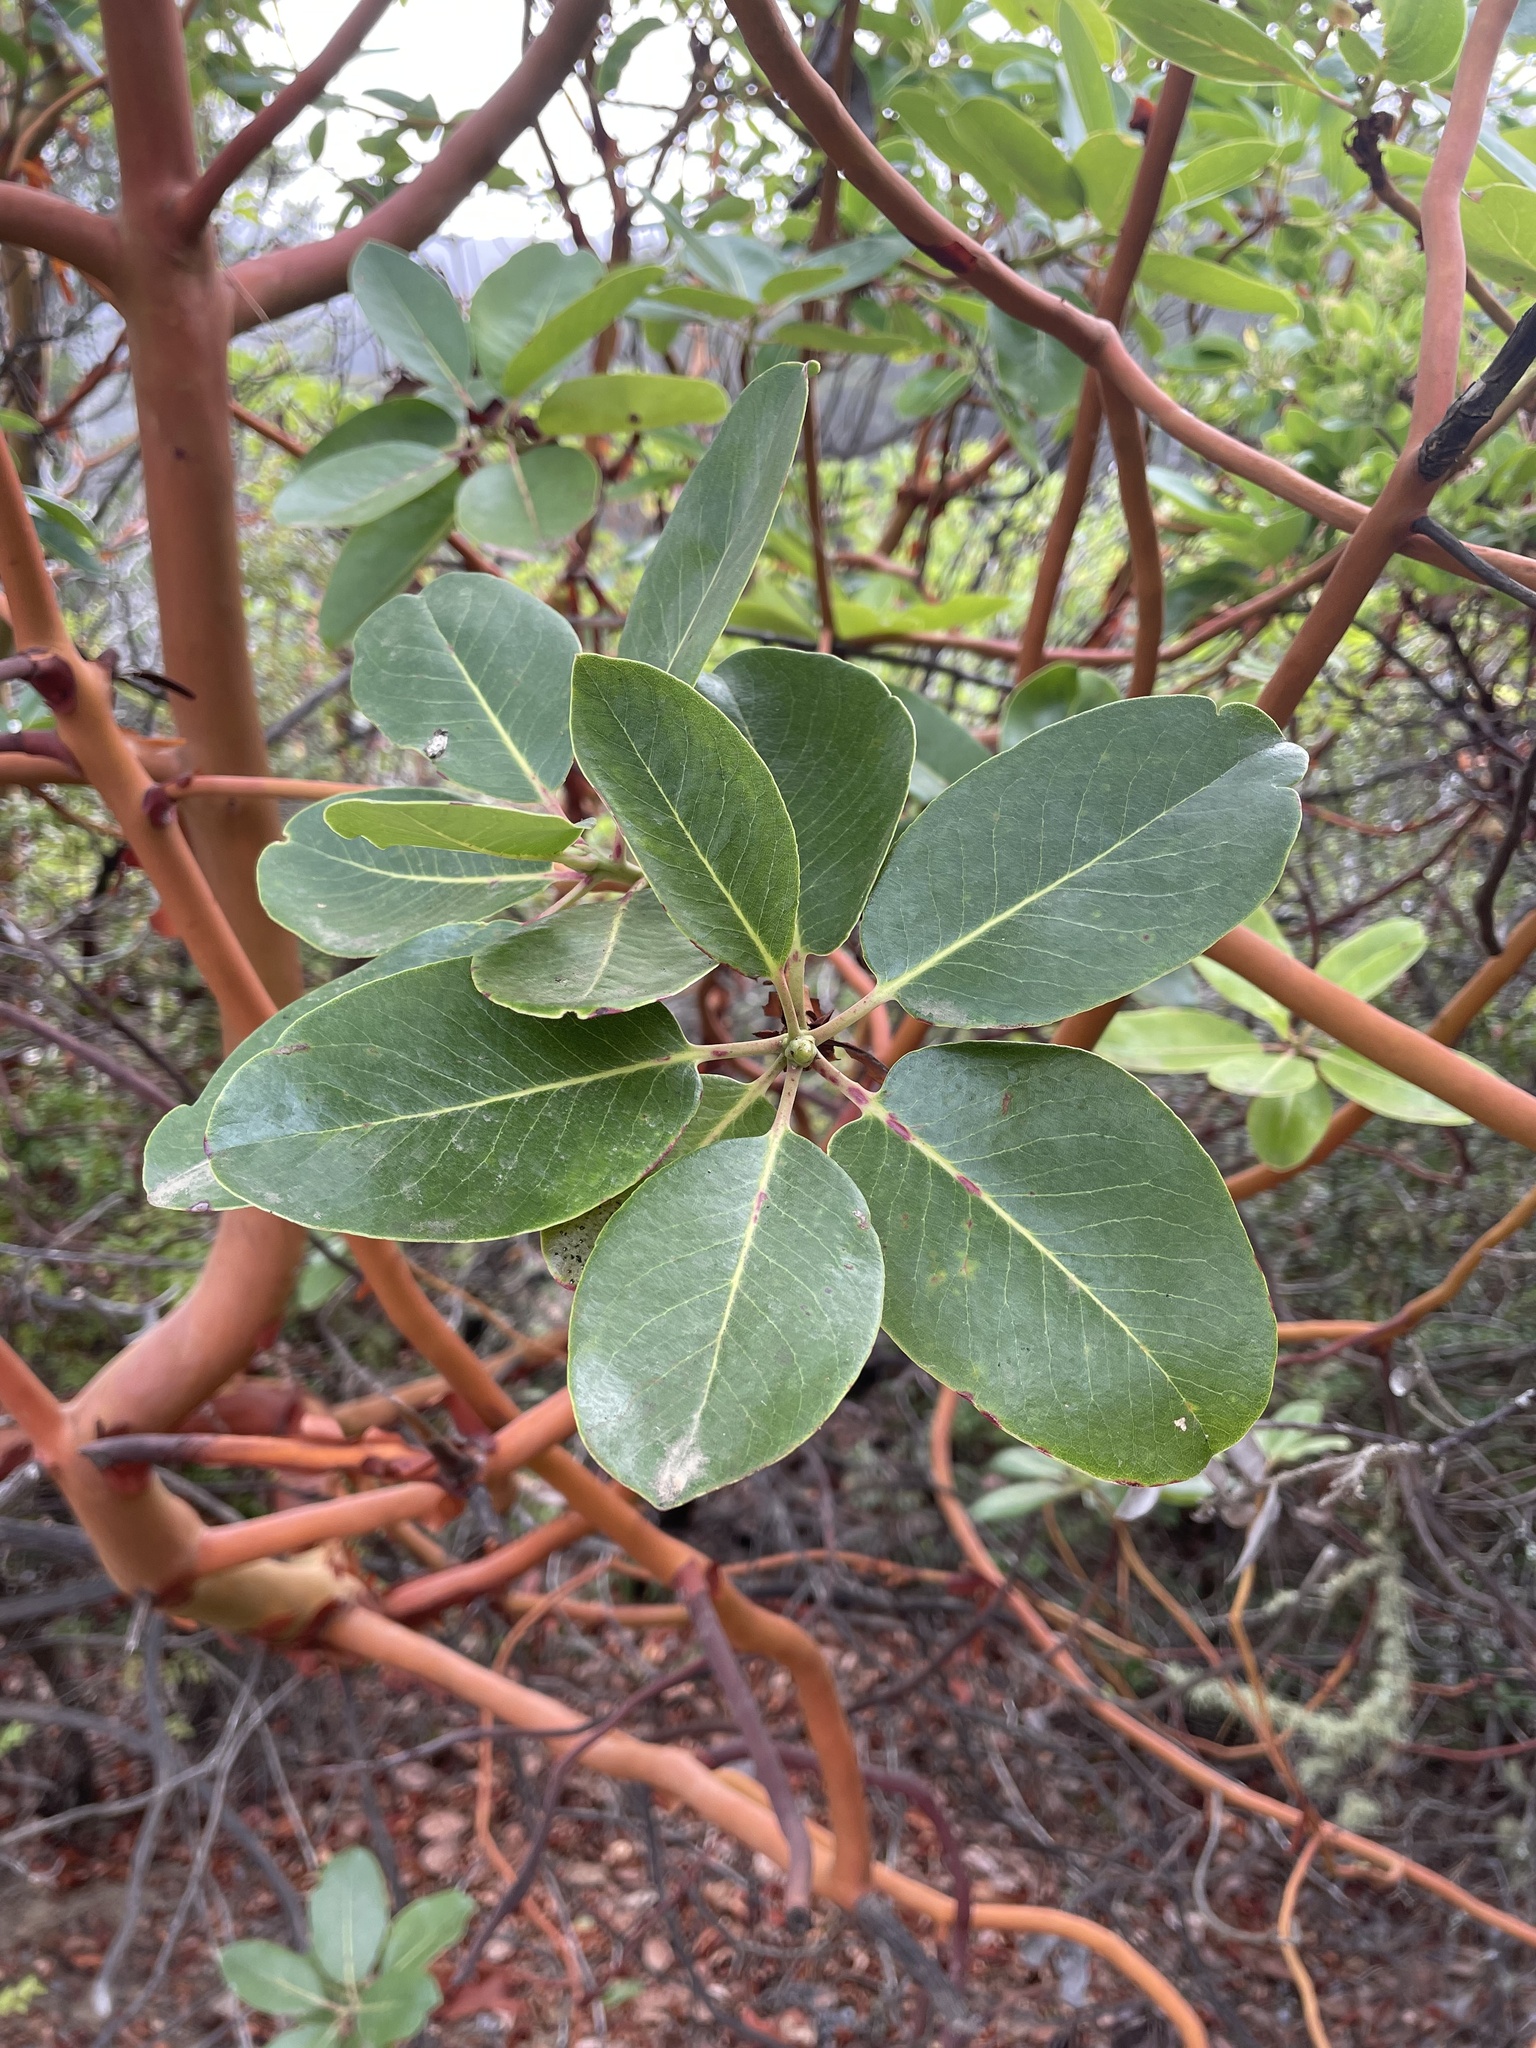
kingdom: Plantae
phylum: Tracheophyta
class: Magnoliopsida
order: Ericales
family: Ericaceae
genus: Arbutus
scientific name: Arbutus menziesii
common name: Pacific madrone
